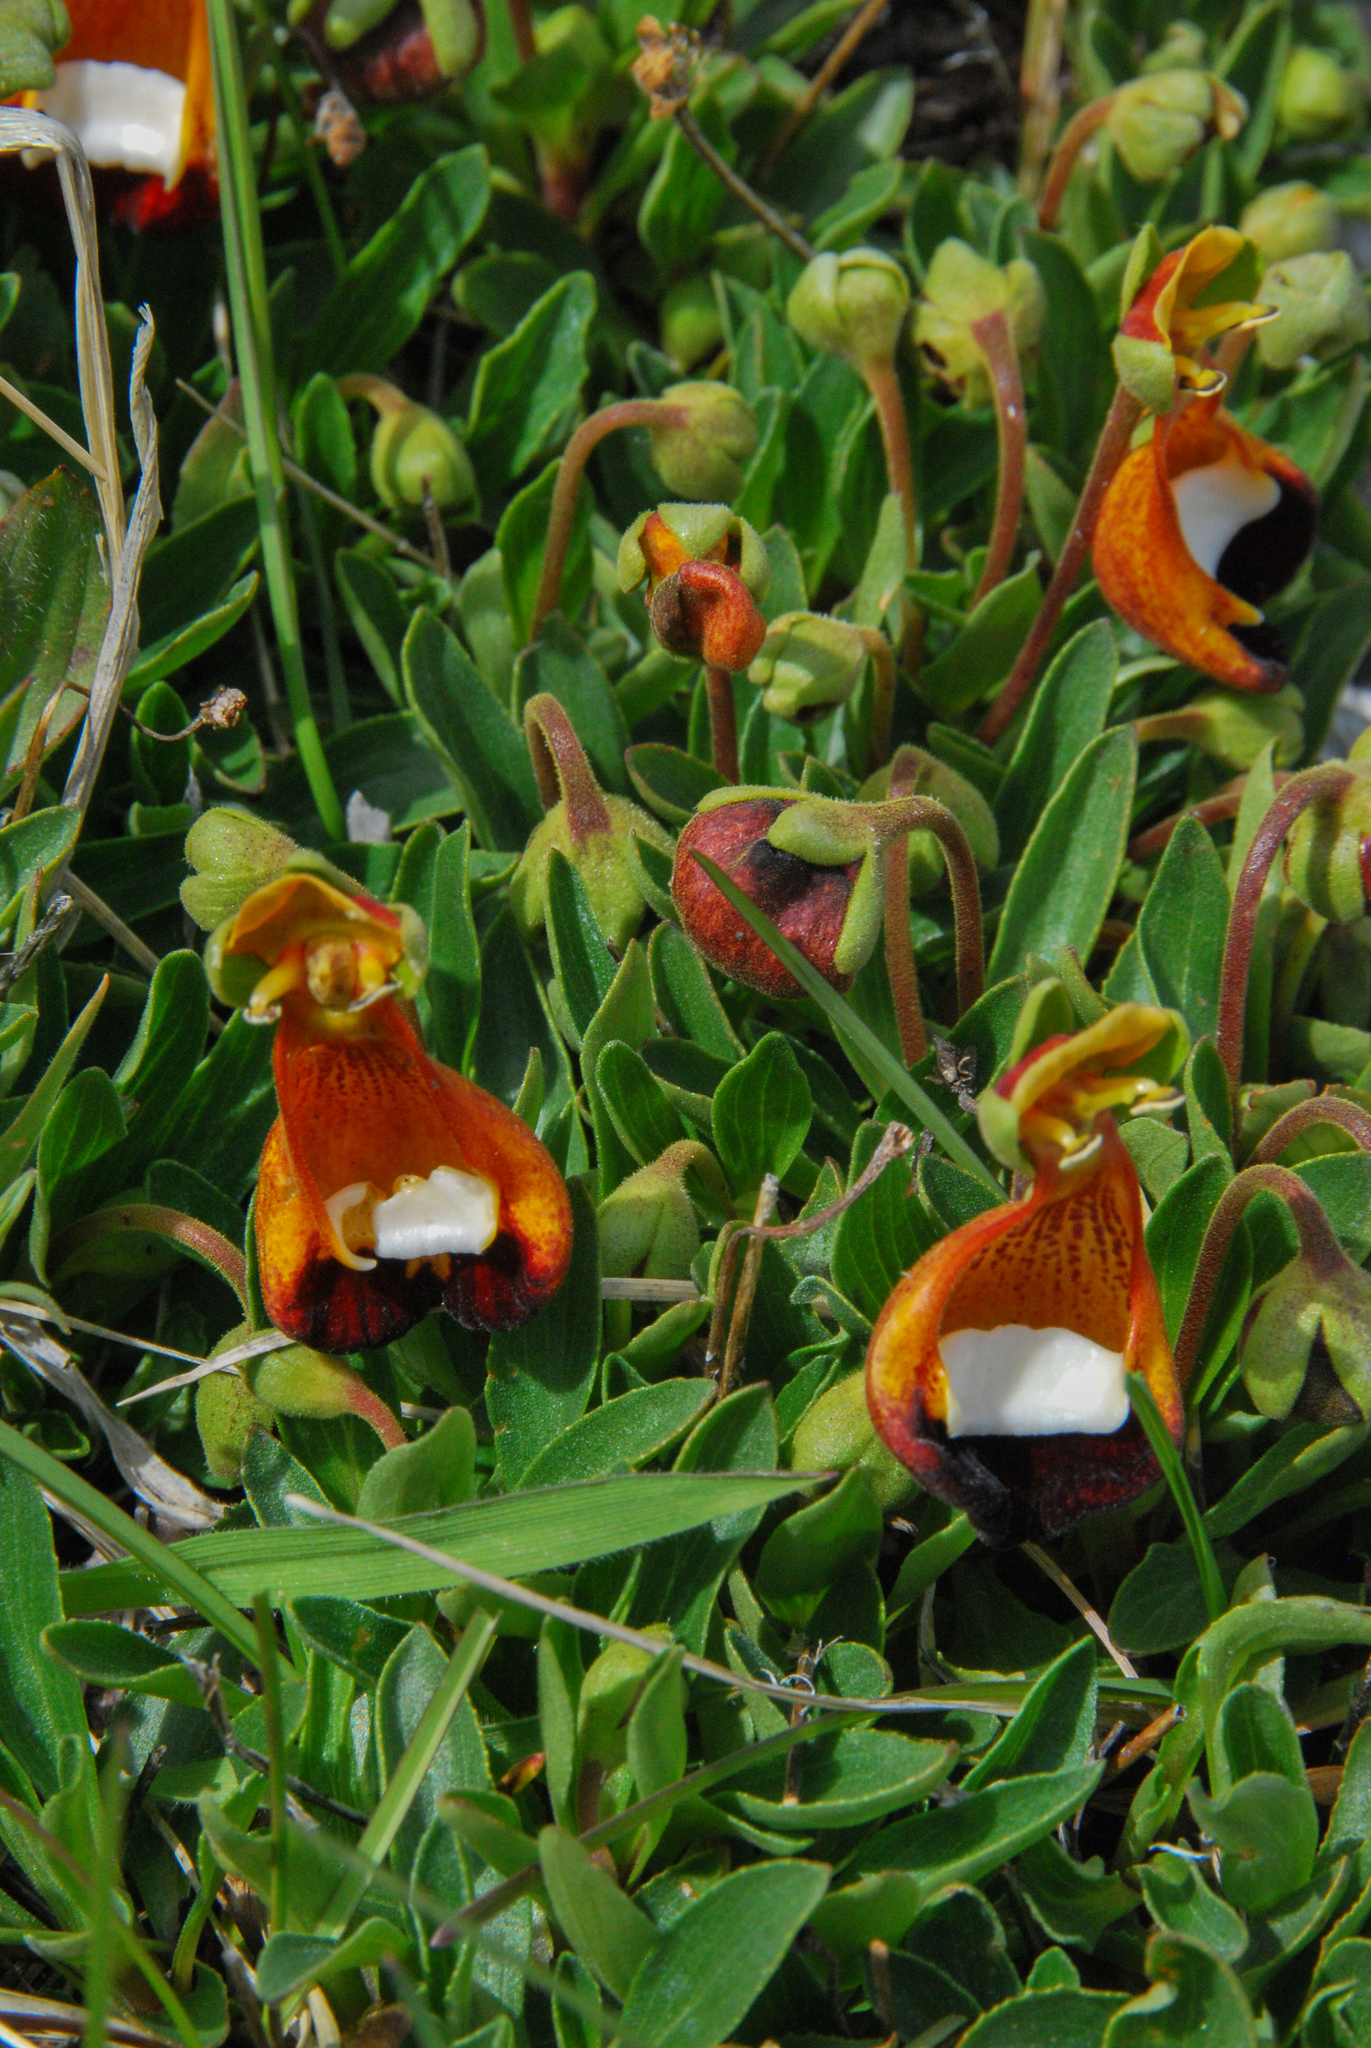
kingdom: Plantae
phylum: Tracheophyta
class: Magnoliopsida
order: Lamiales
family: Calceolariaceae
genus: Calceolaria
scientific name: Calceolaria uniflora
